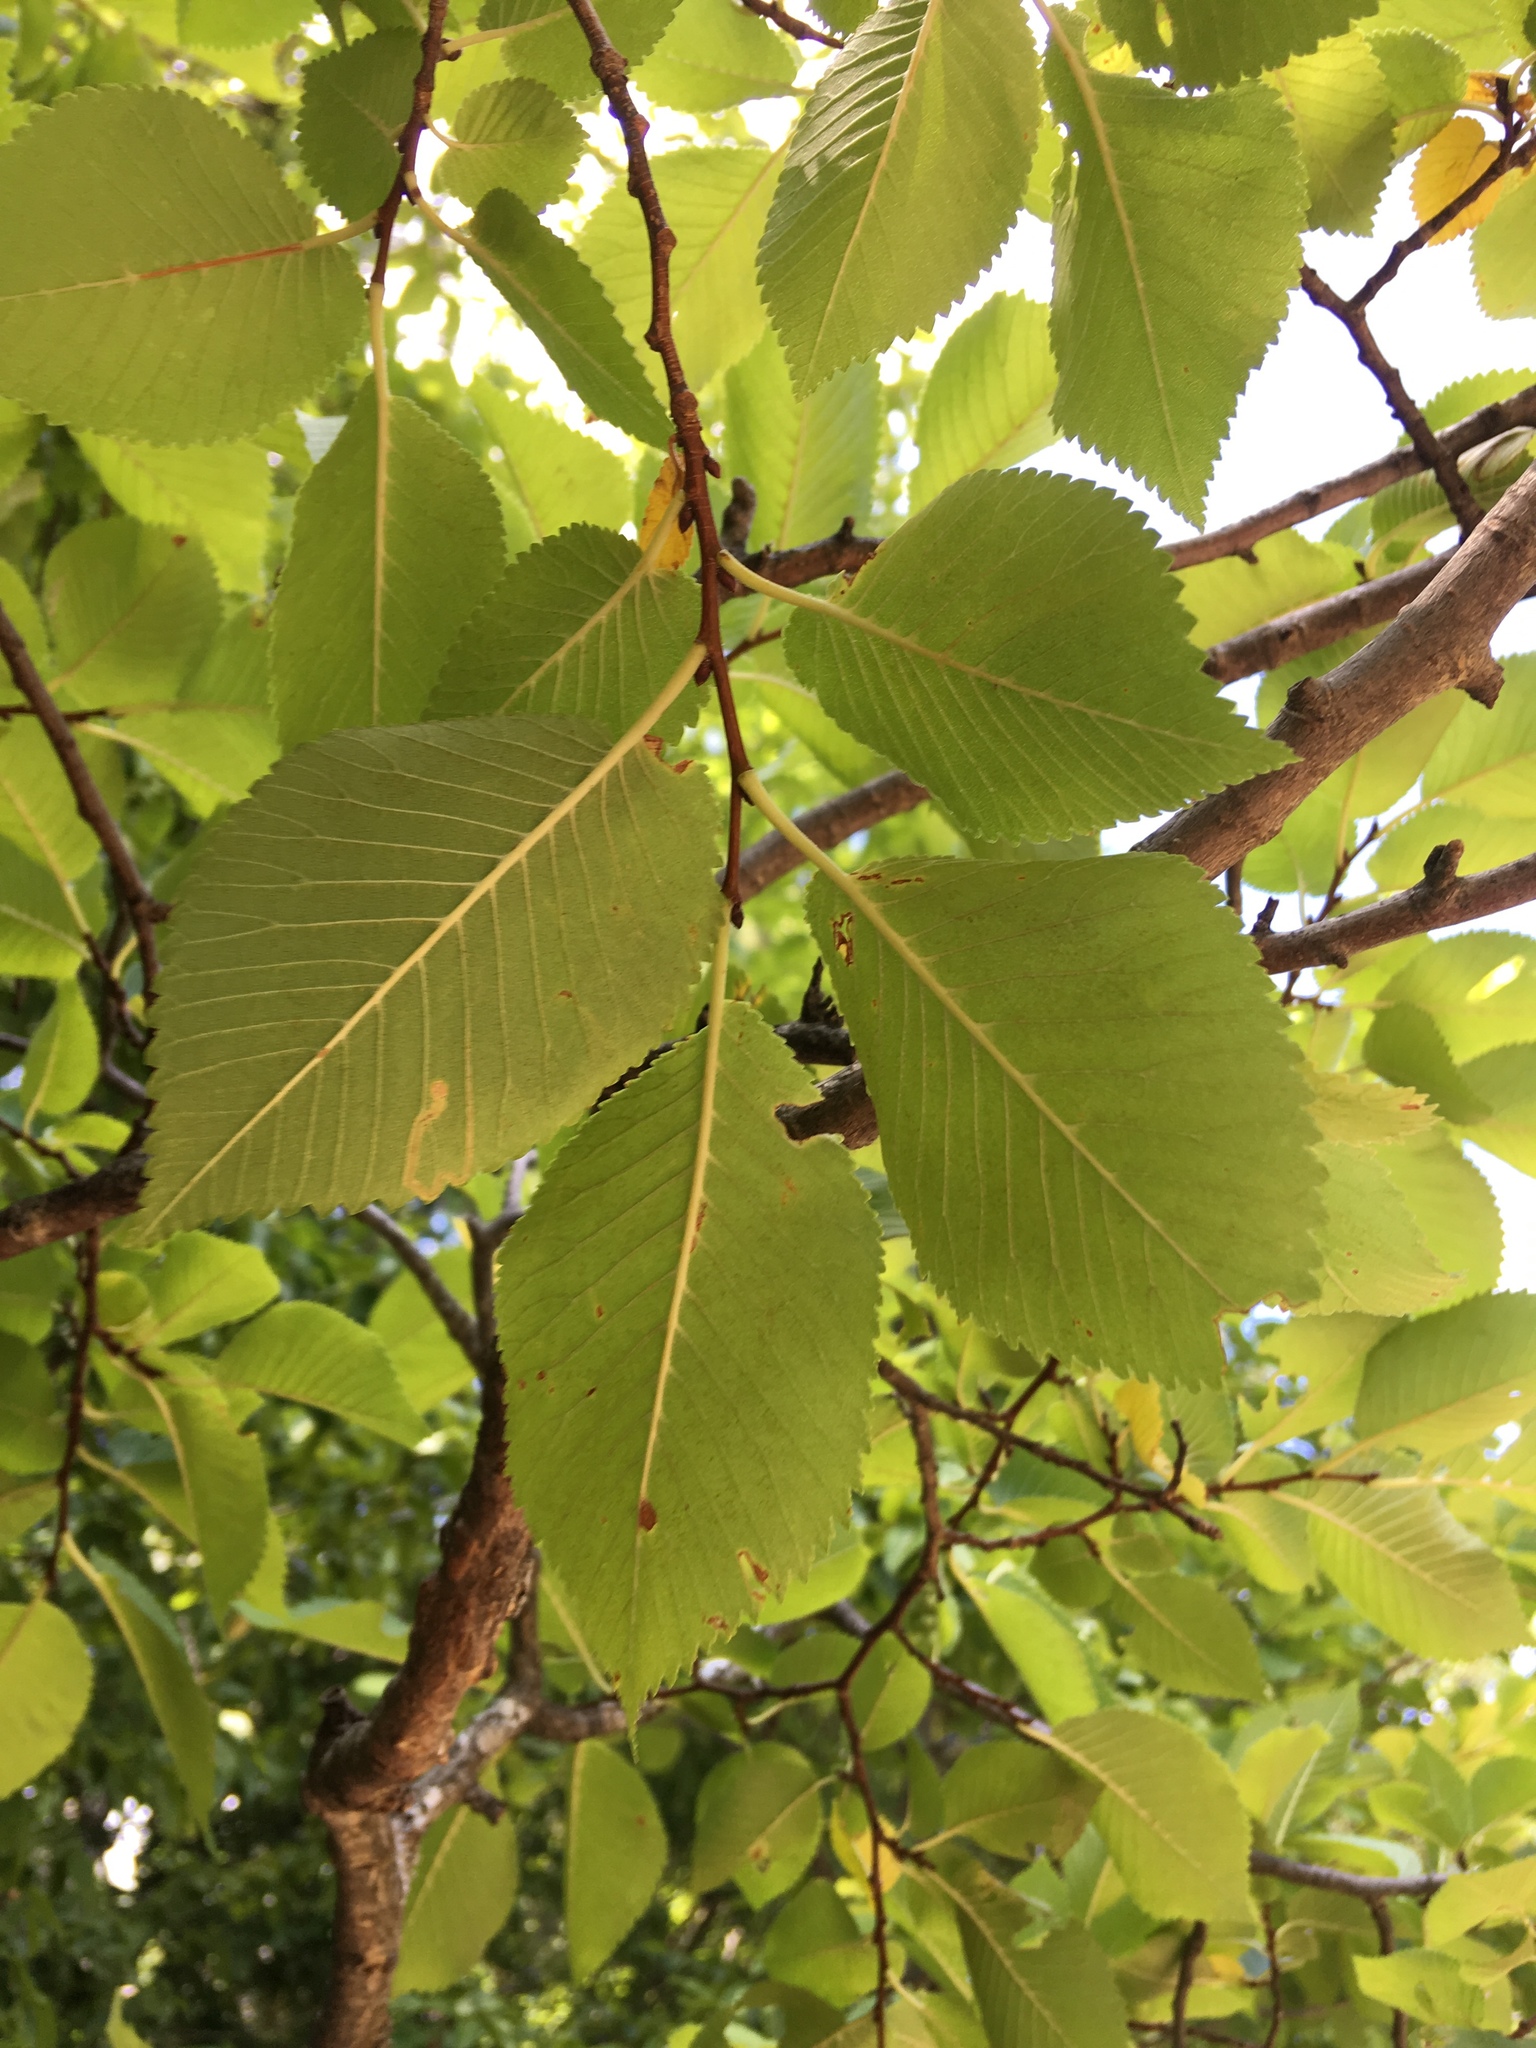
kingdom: Plantae
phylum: Tracheophyta
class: Magnoliopsida
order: Rosales
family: Ulmaceae
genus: Ulmus
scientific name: Ulmus minor
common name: Small-leaved elm
